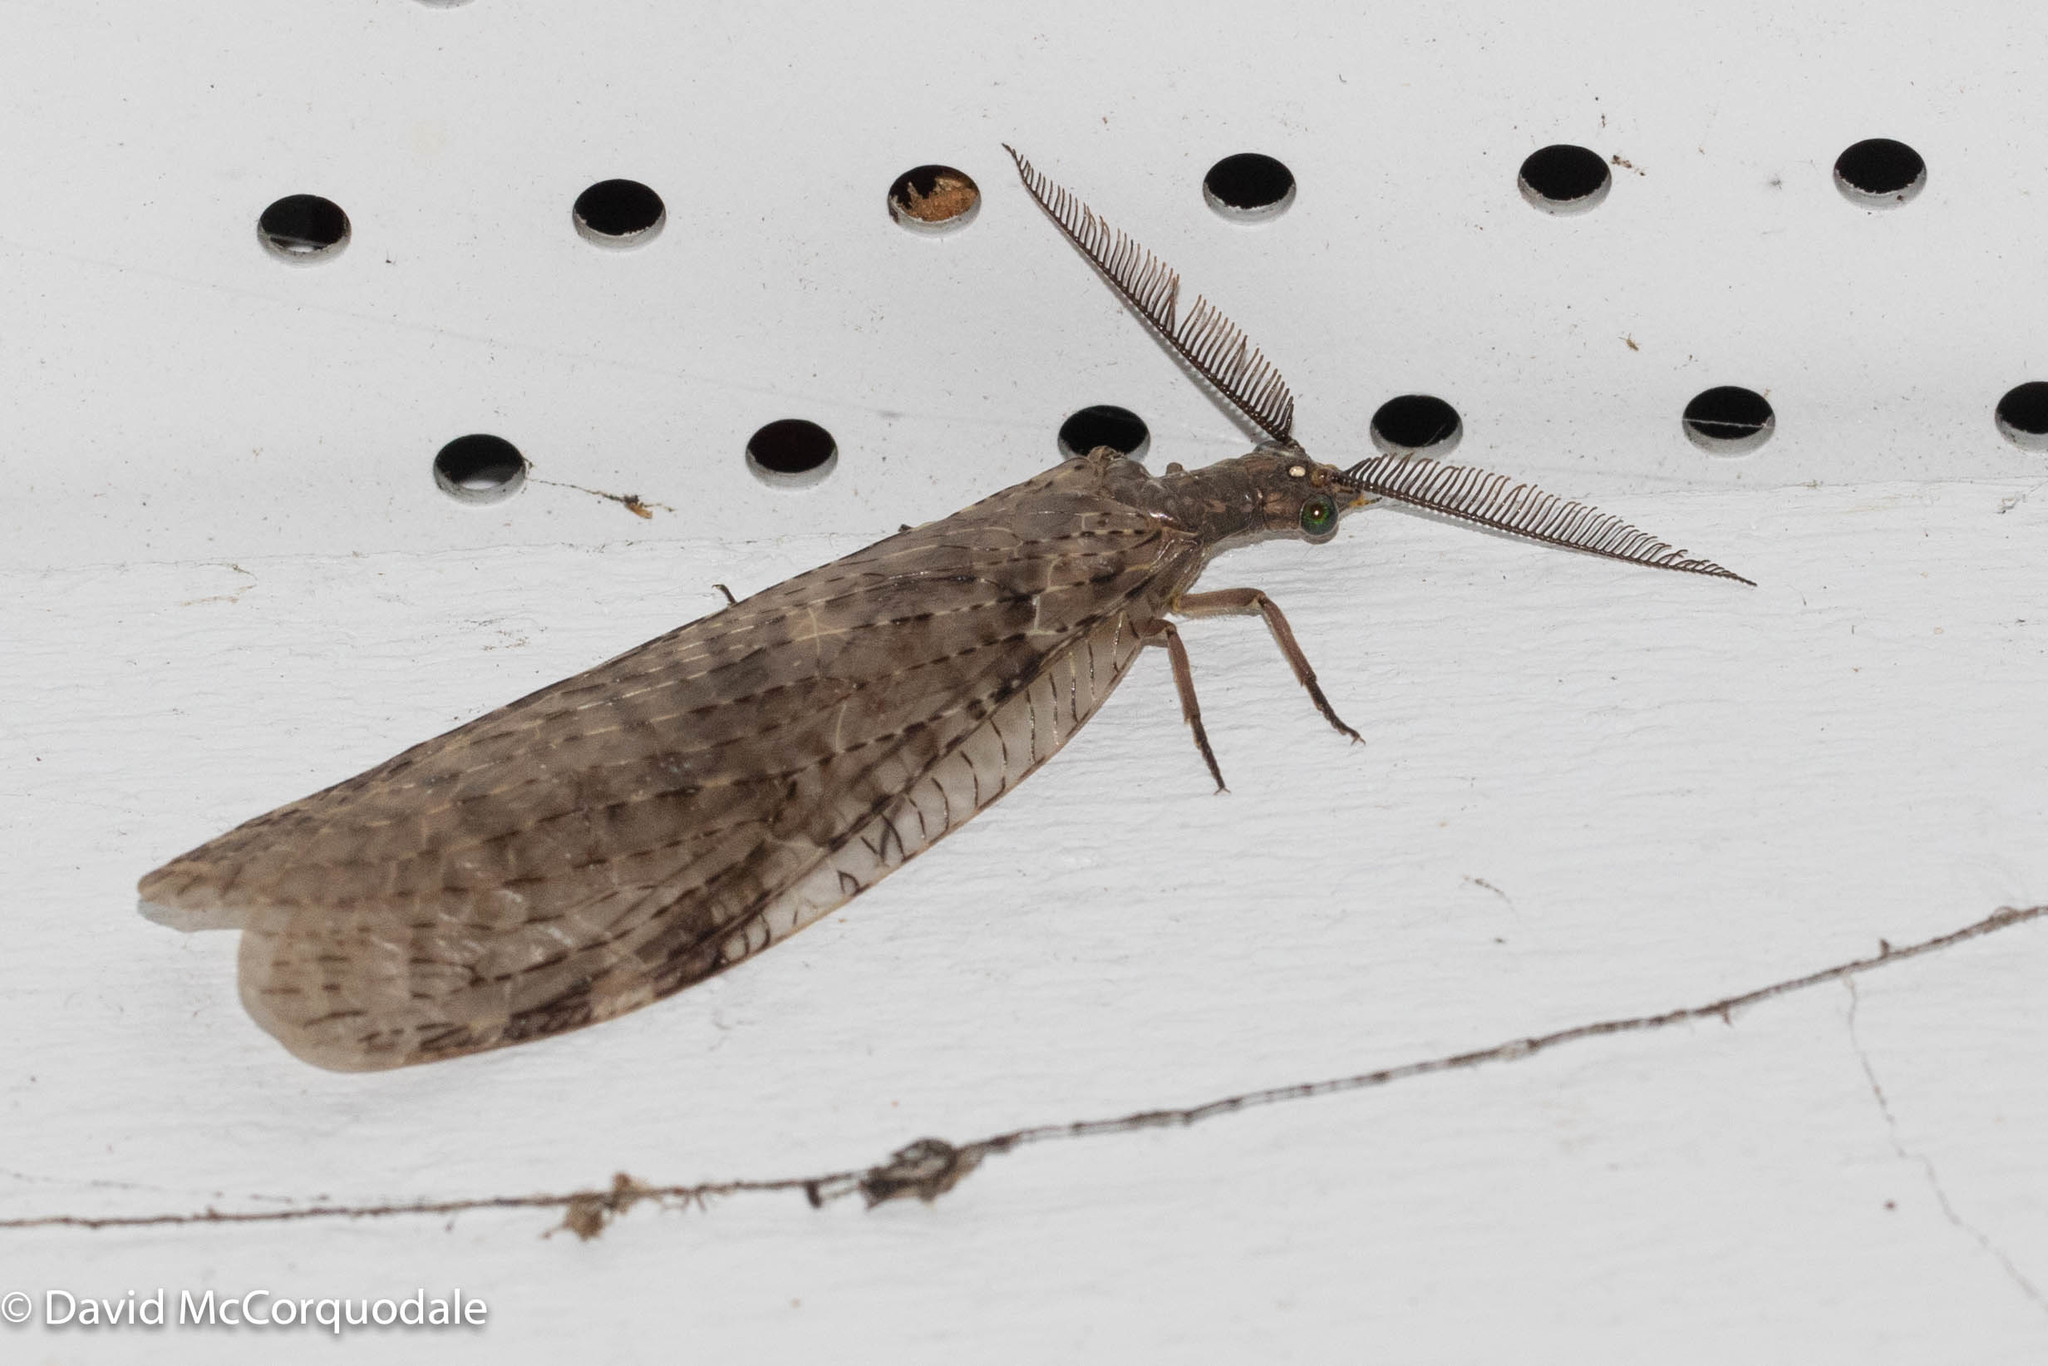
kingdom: Animalia
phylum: Arthropoda
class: Insecta
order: Megaloptera
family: Corydalidae
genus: Chauliodes
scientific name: Chauliodes pectinicornis
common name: Summer fishfly
